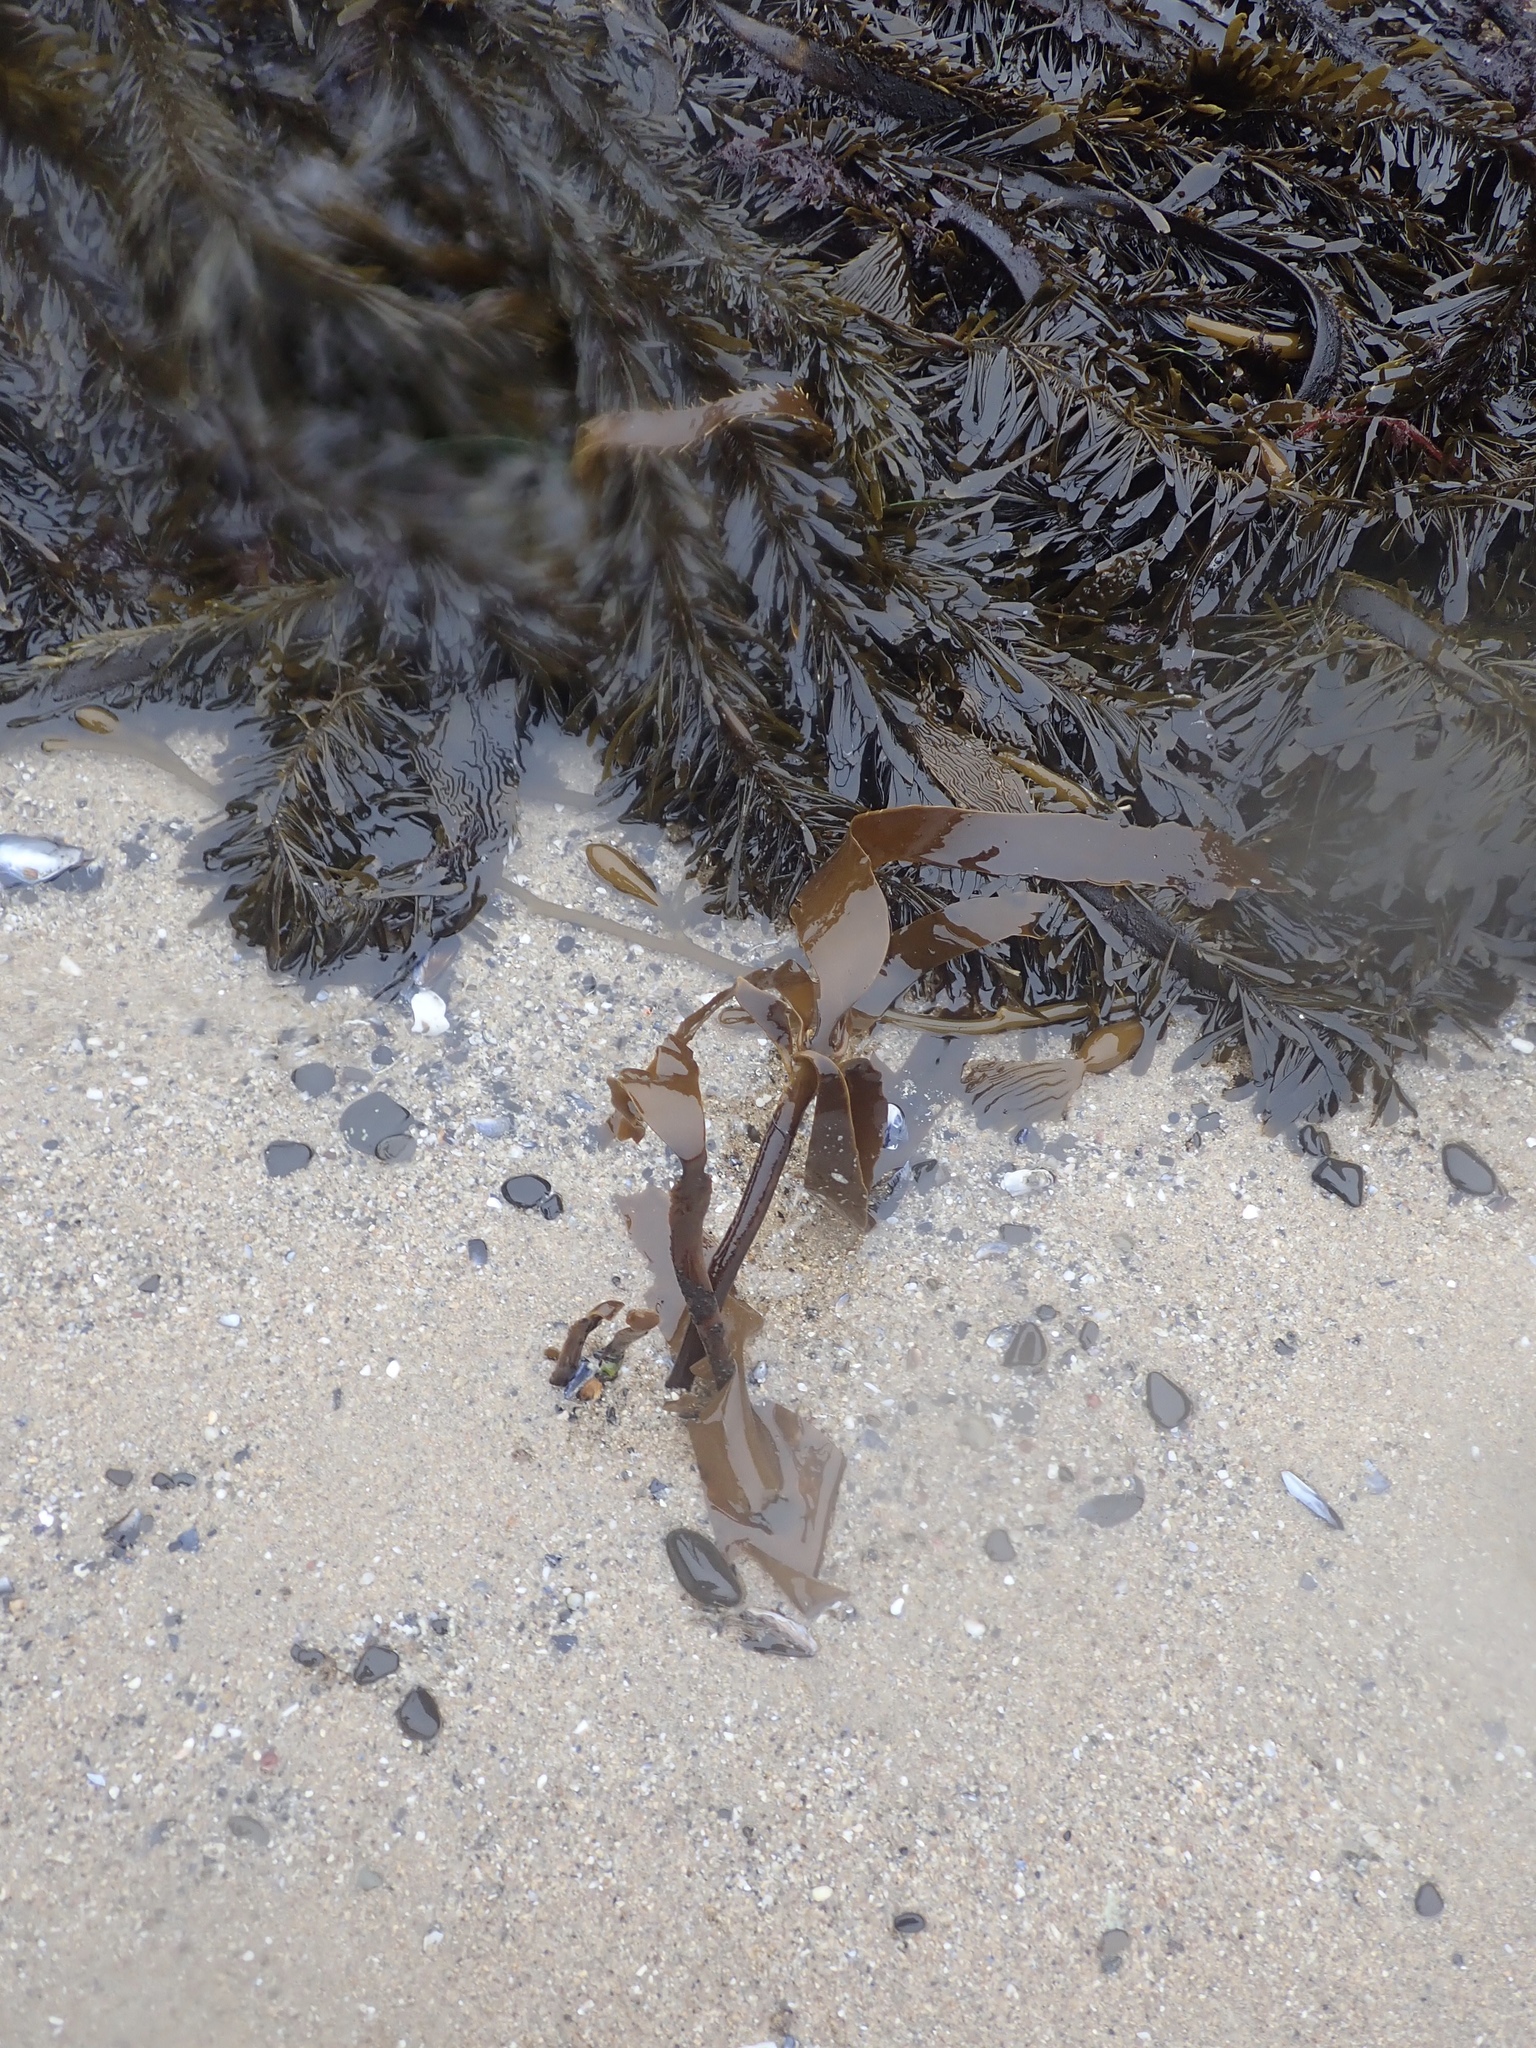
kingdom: Chromista
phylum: Ochrophyta
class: Phaeophyceae
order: Laminariales
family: Alariaceae
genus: Pterygophora
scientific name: Pterygophora californica
